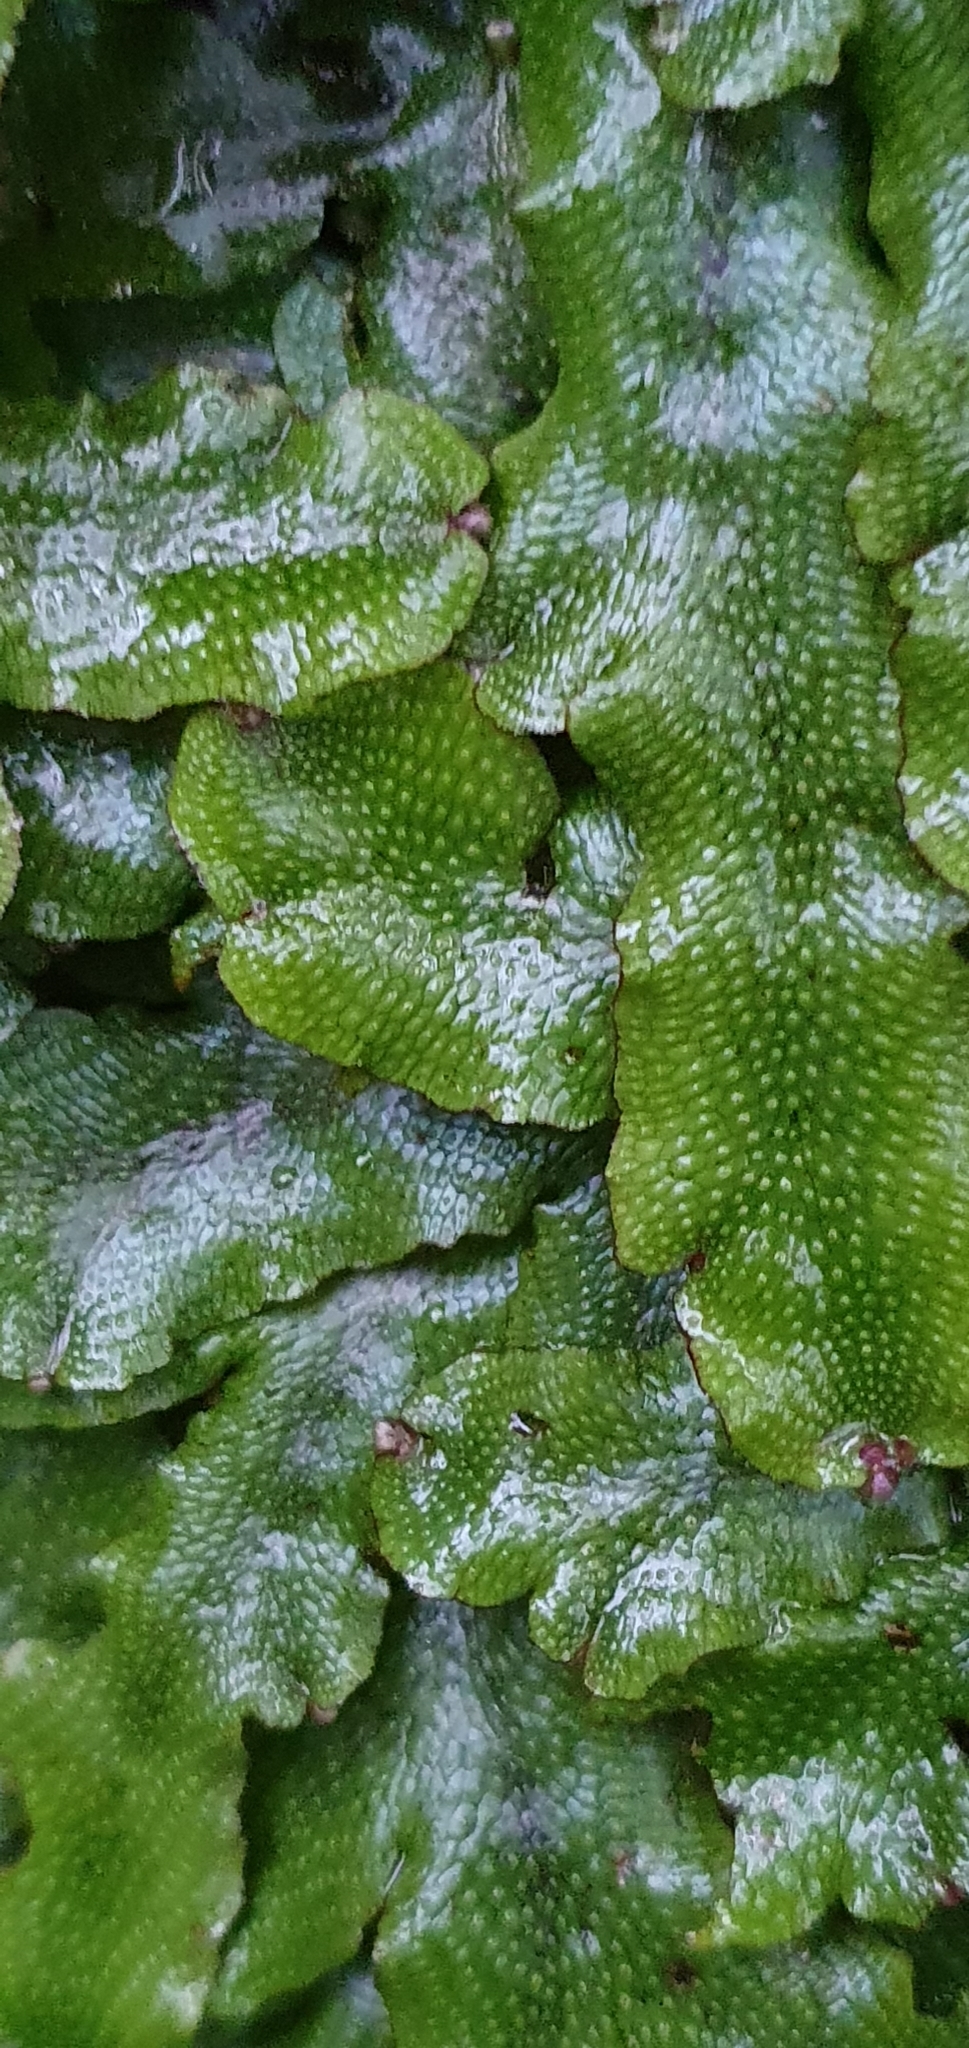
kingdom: Plantae
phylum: Marchantiophyta
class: Marchantiopsida
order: Marchantiales
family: Conocephalaceae
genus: Conocephalum
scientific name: Conocephalum conicum
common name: Great scented liverwort
